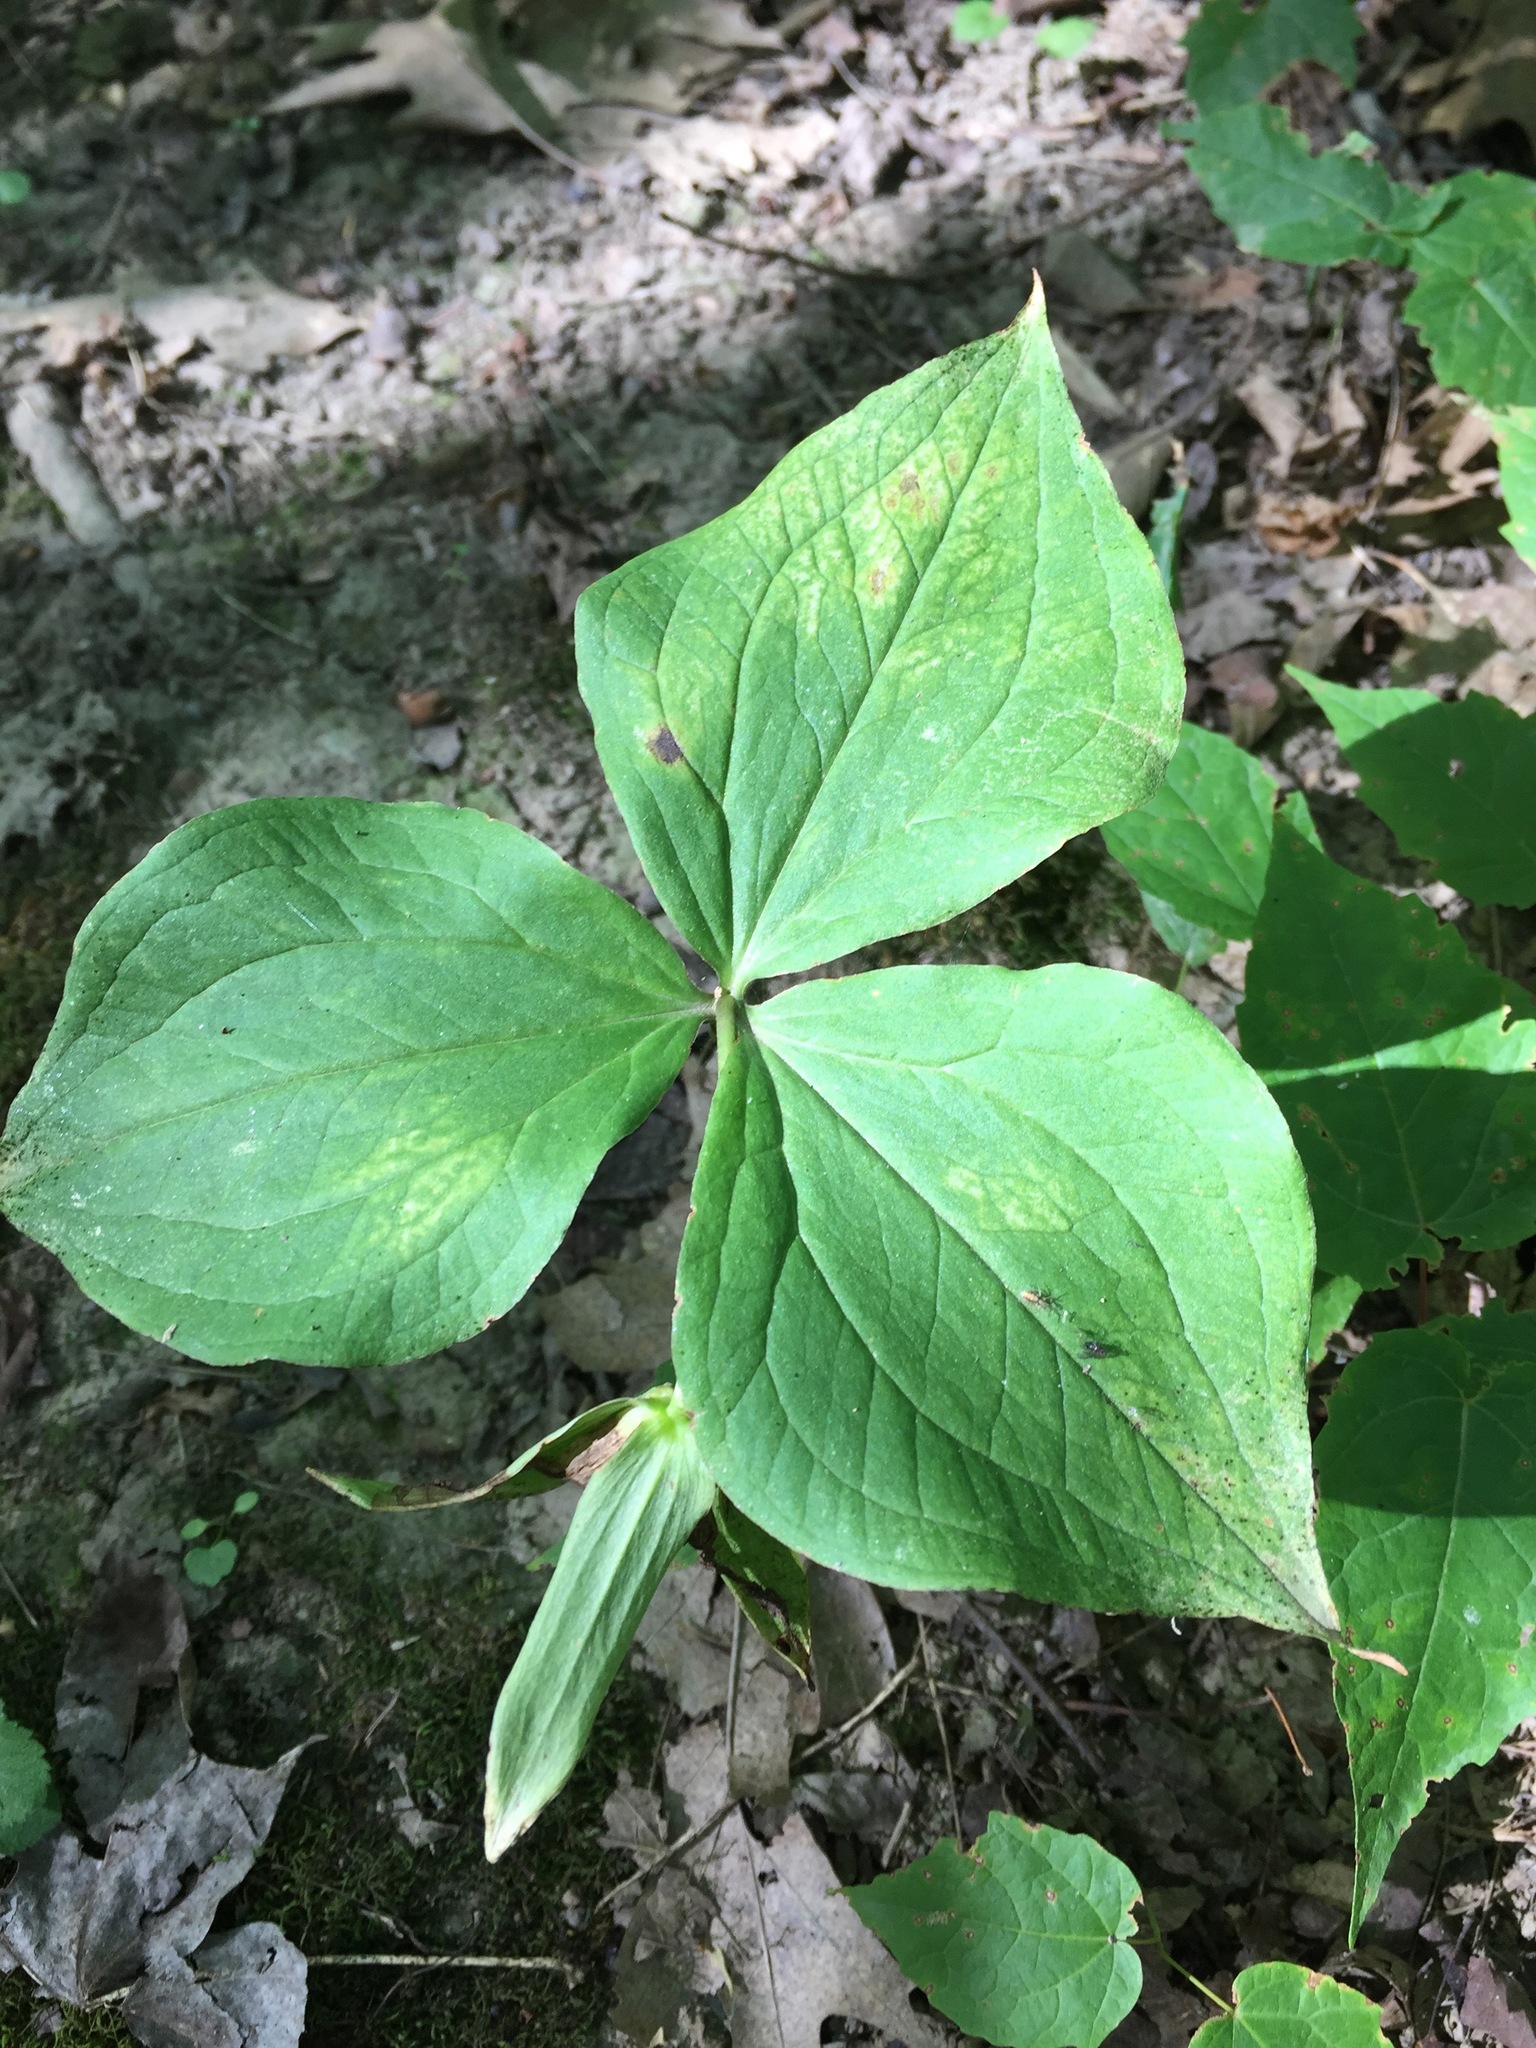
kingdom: Plantae
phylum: Tracheophyta
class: Liliopsida
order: Liliales
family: Melanthiaceae
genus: Trillium
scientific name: Trillium grandiflorum
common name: Great white trillium
